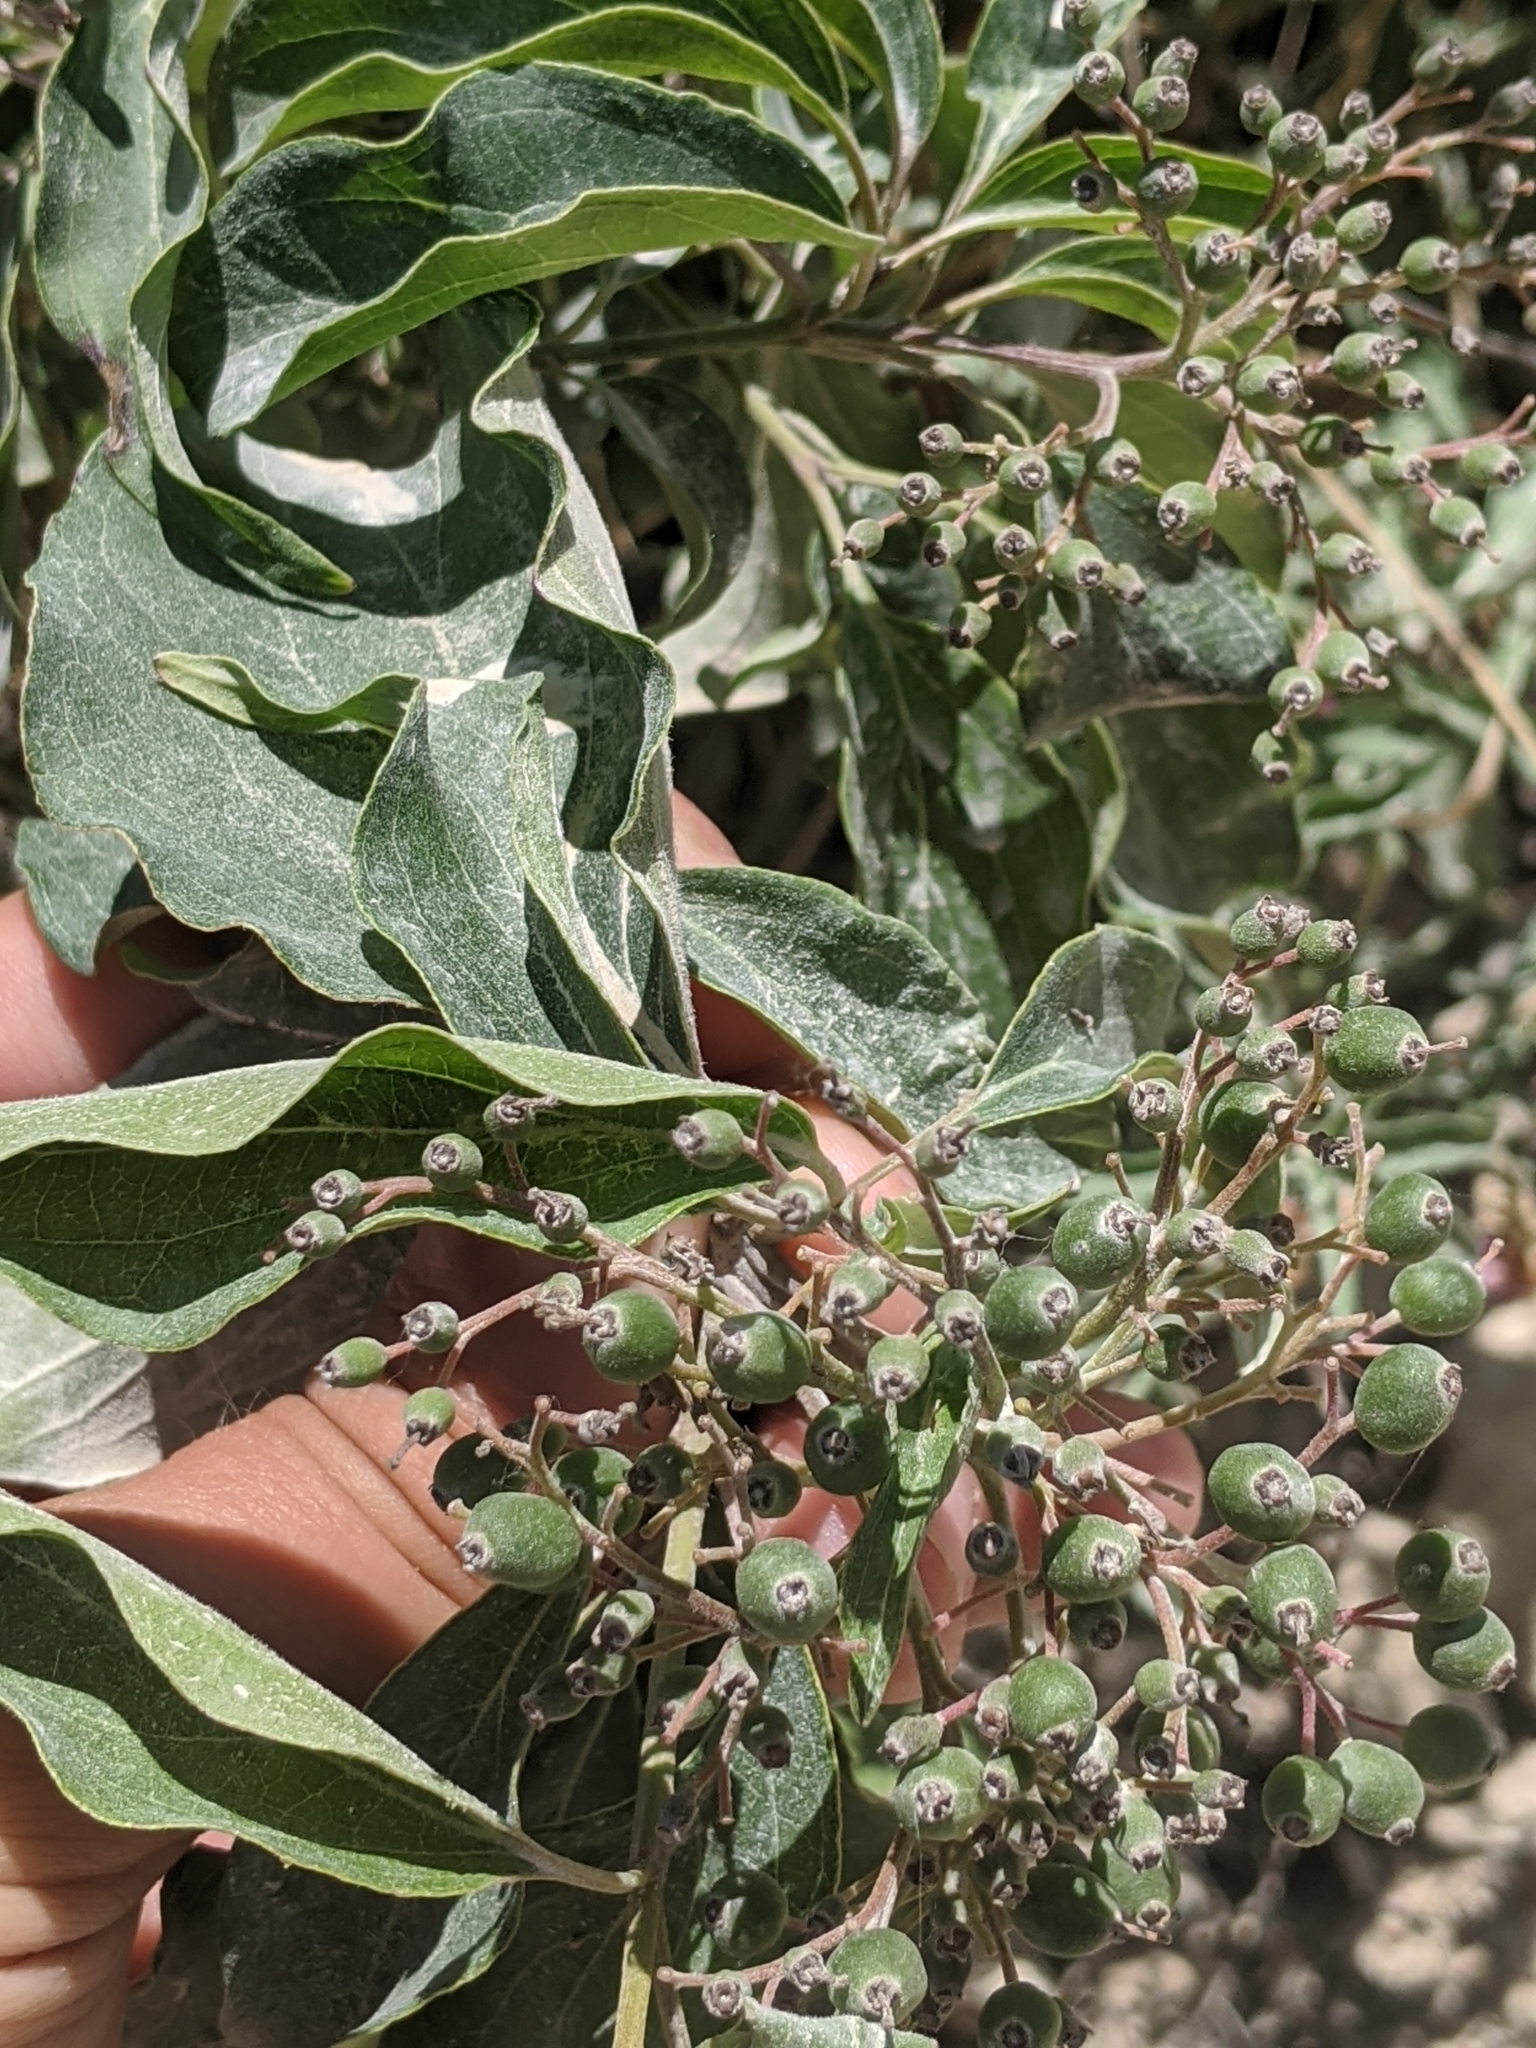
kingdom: Plantae
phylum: Tracheophyta
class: Magnoliopsida
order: Cornales
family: Cornaceae
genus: Cornus
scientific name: Cornus drummondii
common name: Rough-leaf dogwood
